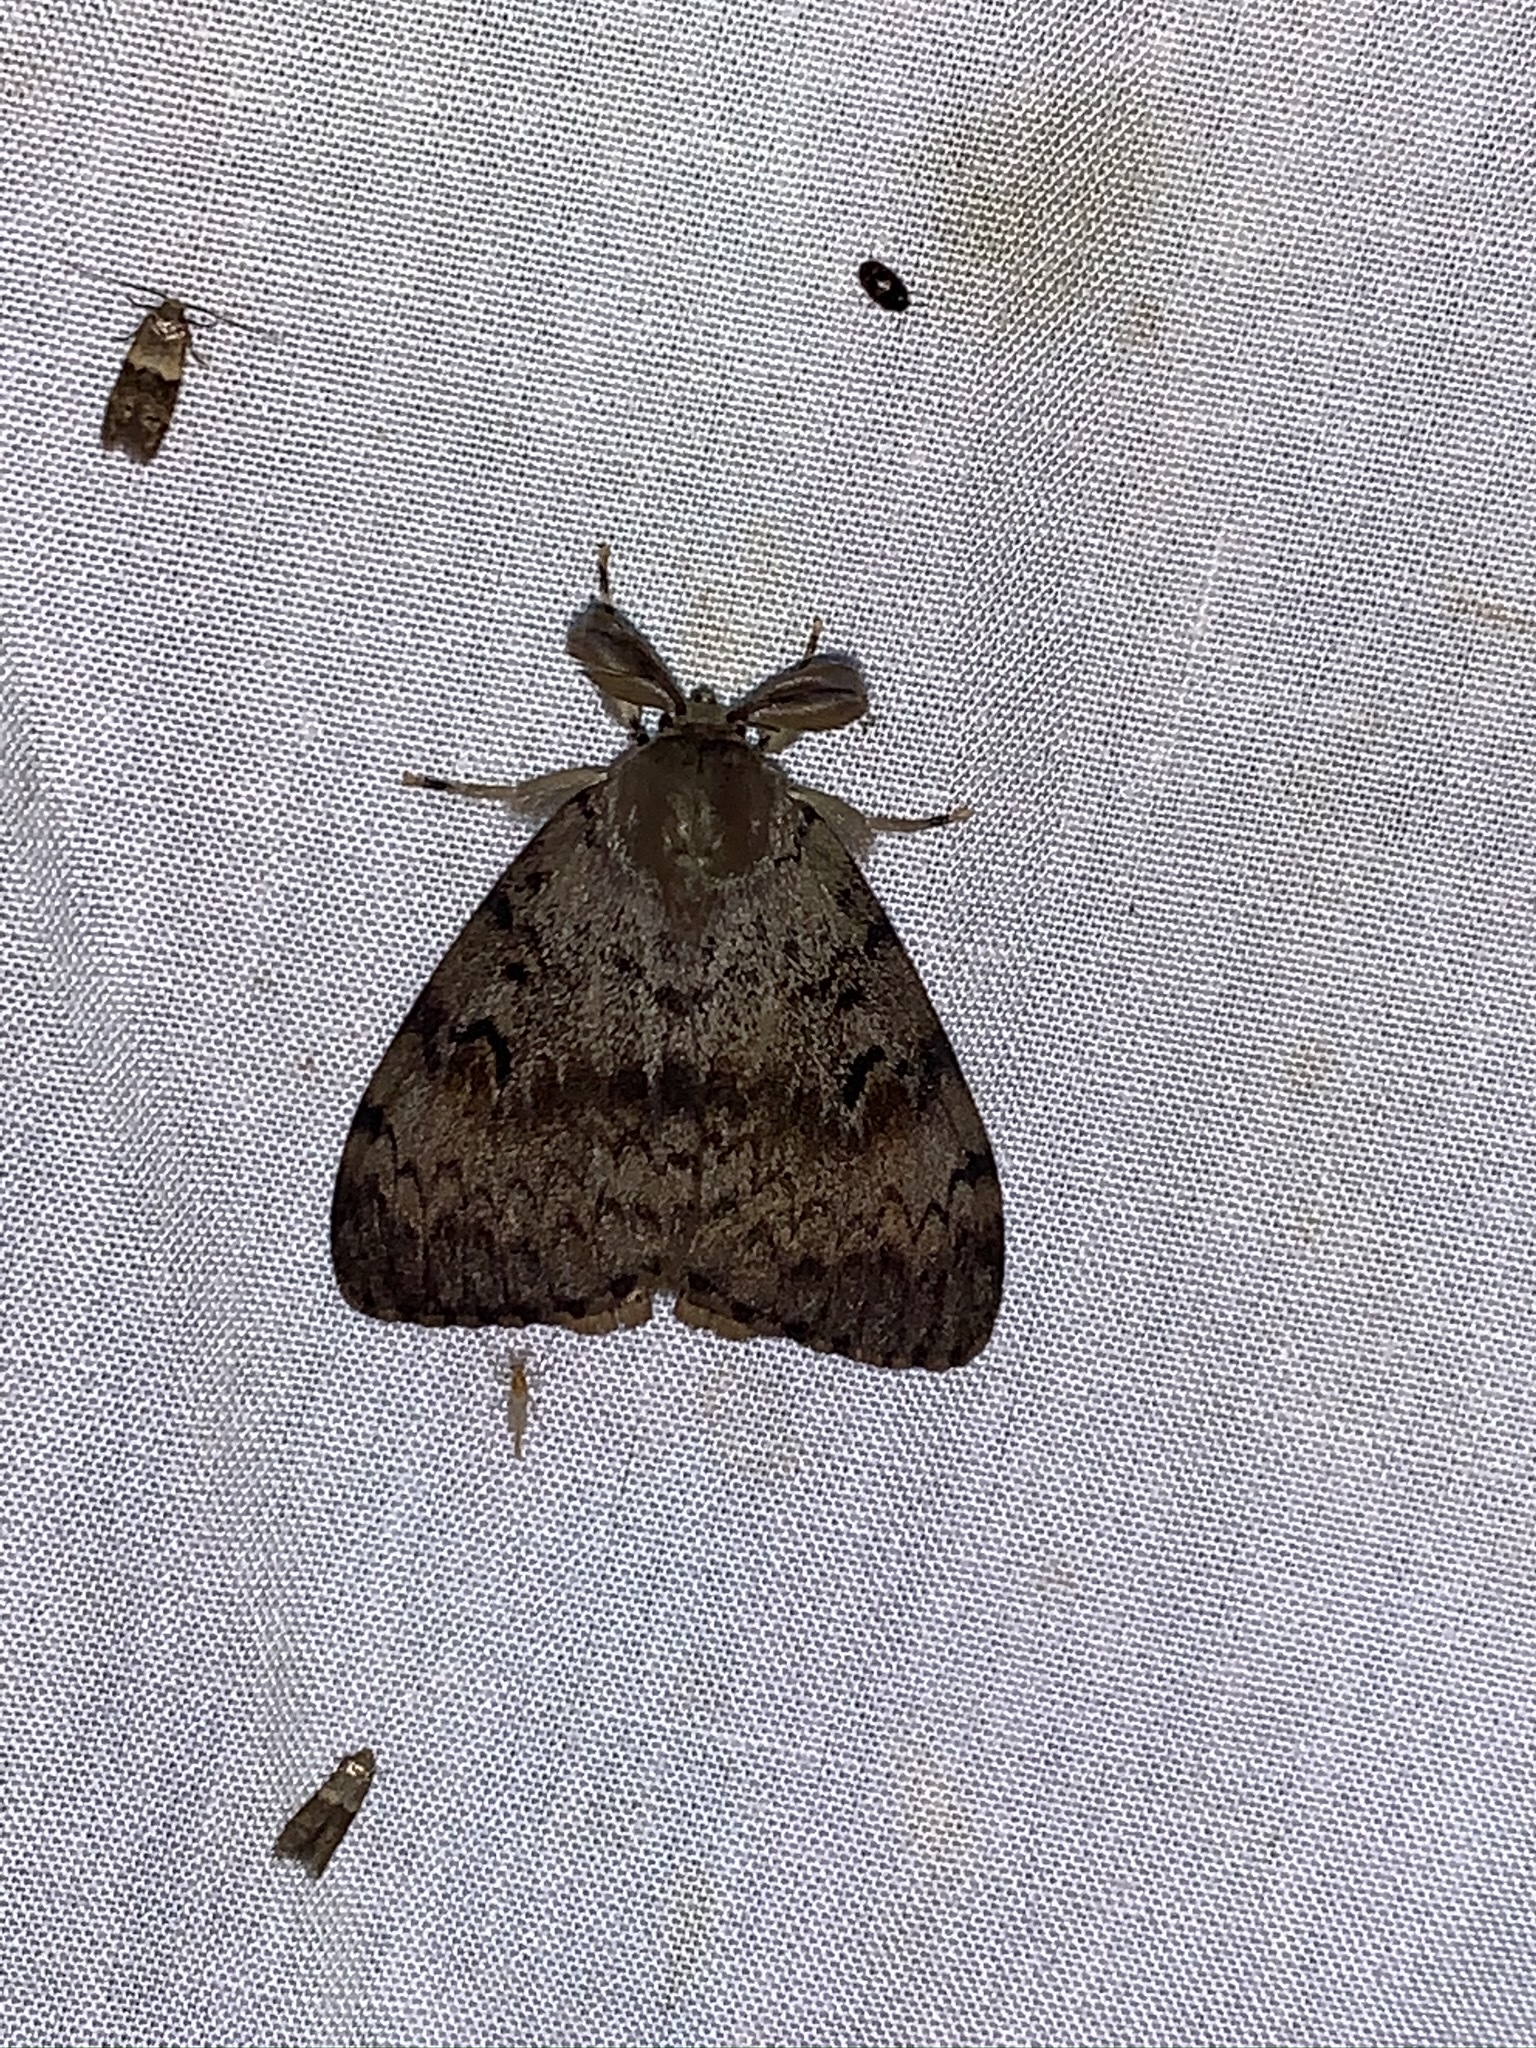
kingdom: Animalia
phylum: Arthropoda
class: Insecta
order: Lepidoptera
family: Erebidae
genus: Lymantria
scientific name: Lymantria dispar
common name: Gypsy moth
